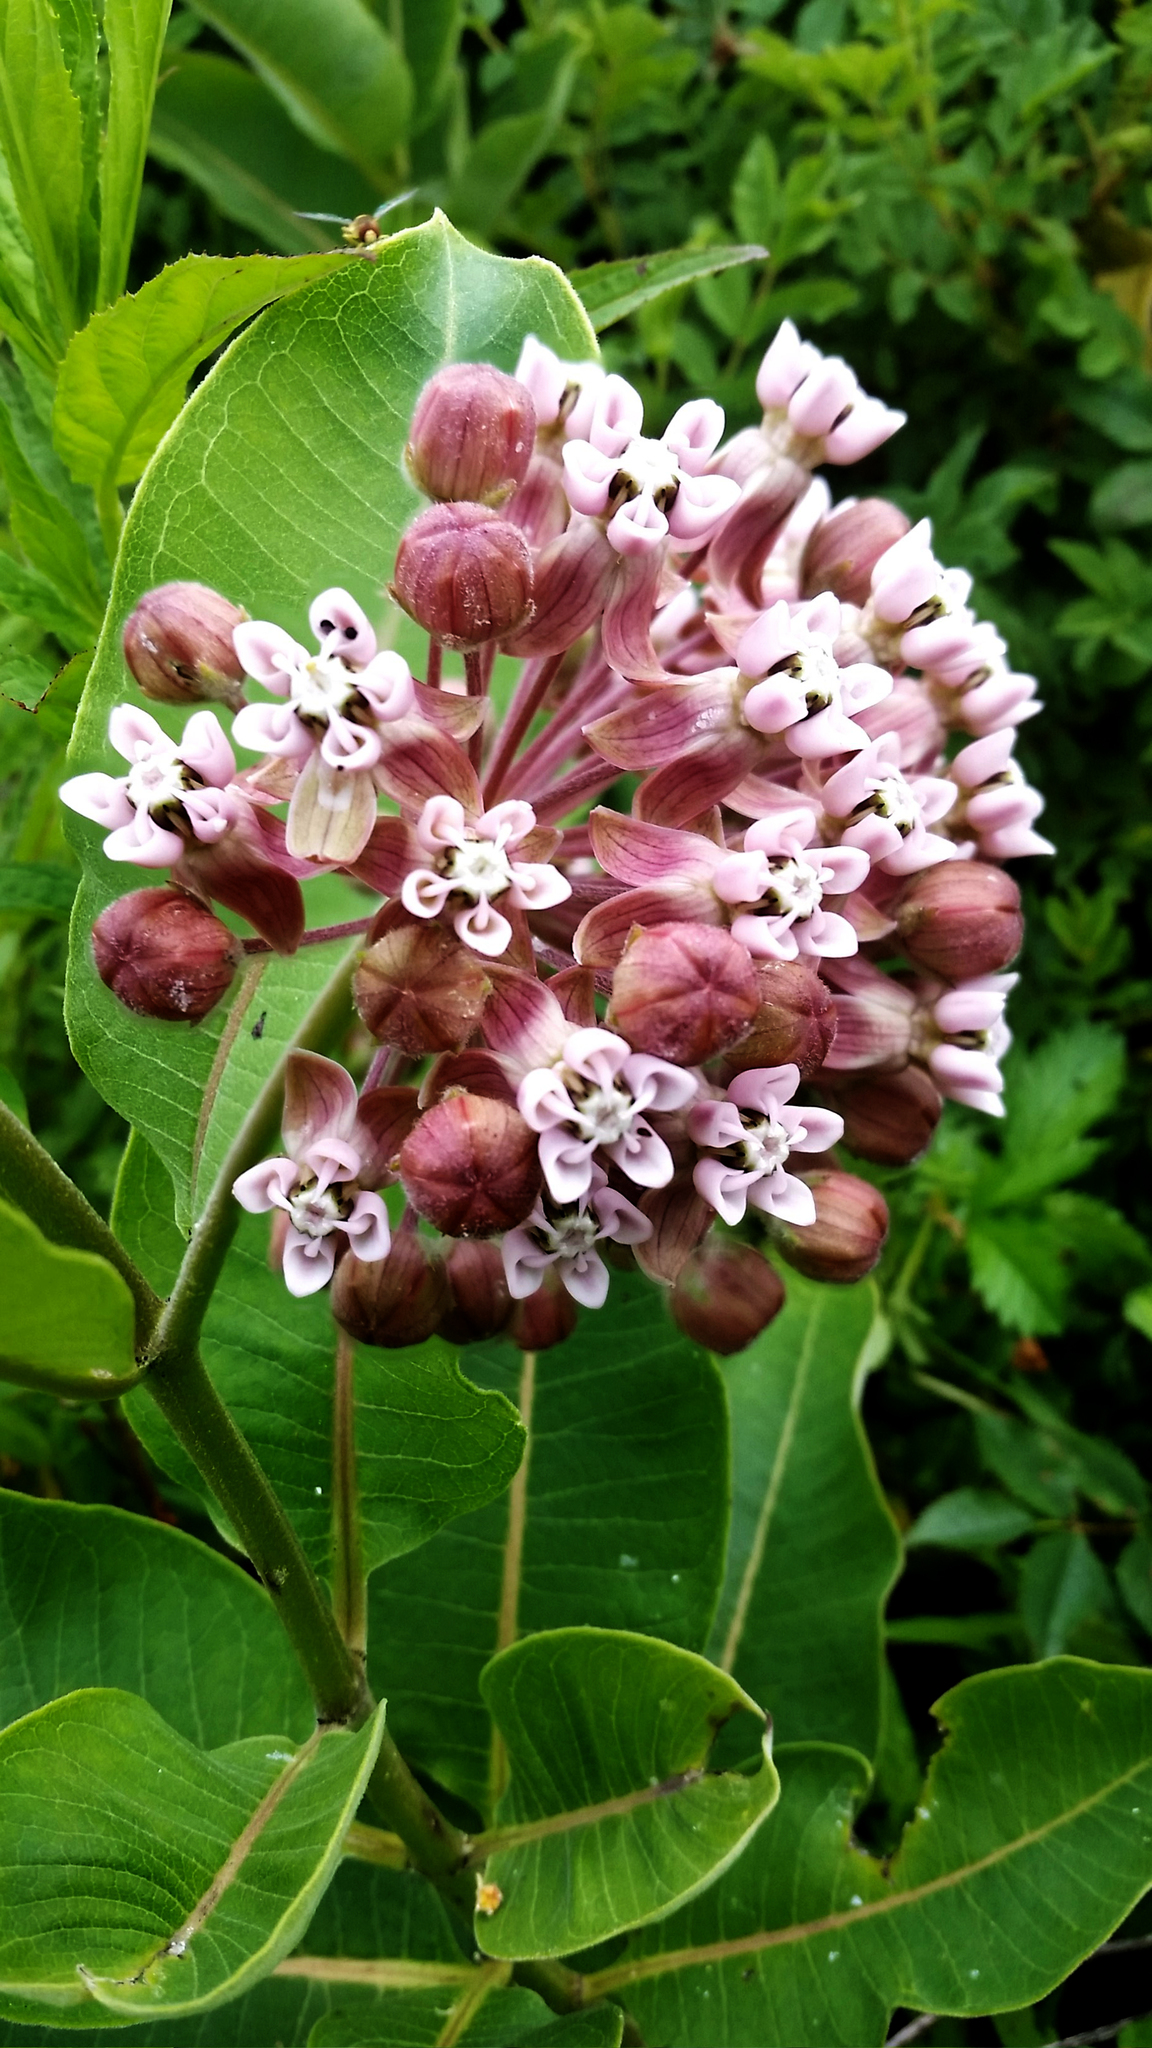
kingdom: Plantae
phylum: Tracheophyta
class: Magnoliopsida
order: Gentianales
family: Apocynaceae
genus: Asclepias
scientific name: Asclepias syriaca
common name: Common milkweed
